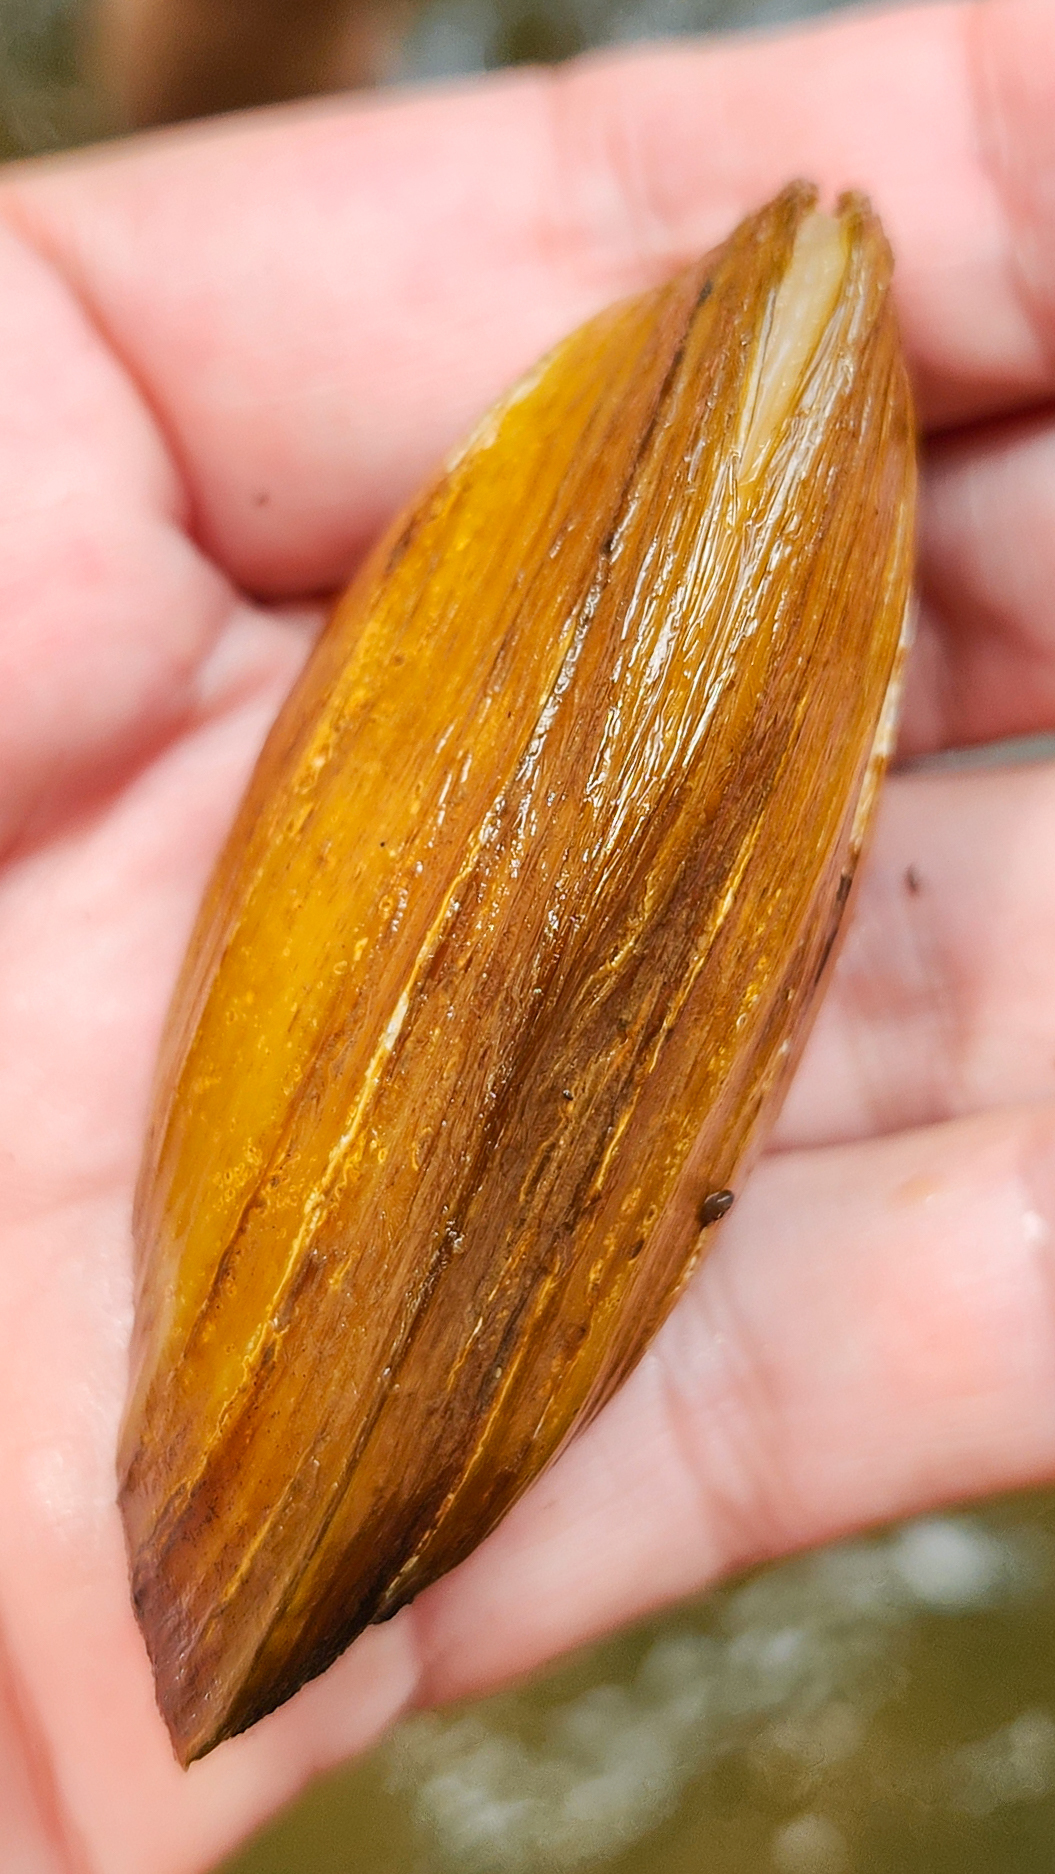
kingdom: Animalia
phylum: Mollusca
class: Bivalvia
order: Unionida
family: Unionidae
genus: Ptychobranchus
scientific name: Ptychobranchus foremanianus
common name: Rayed kidneyshell
